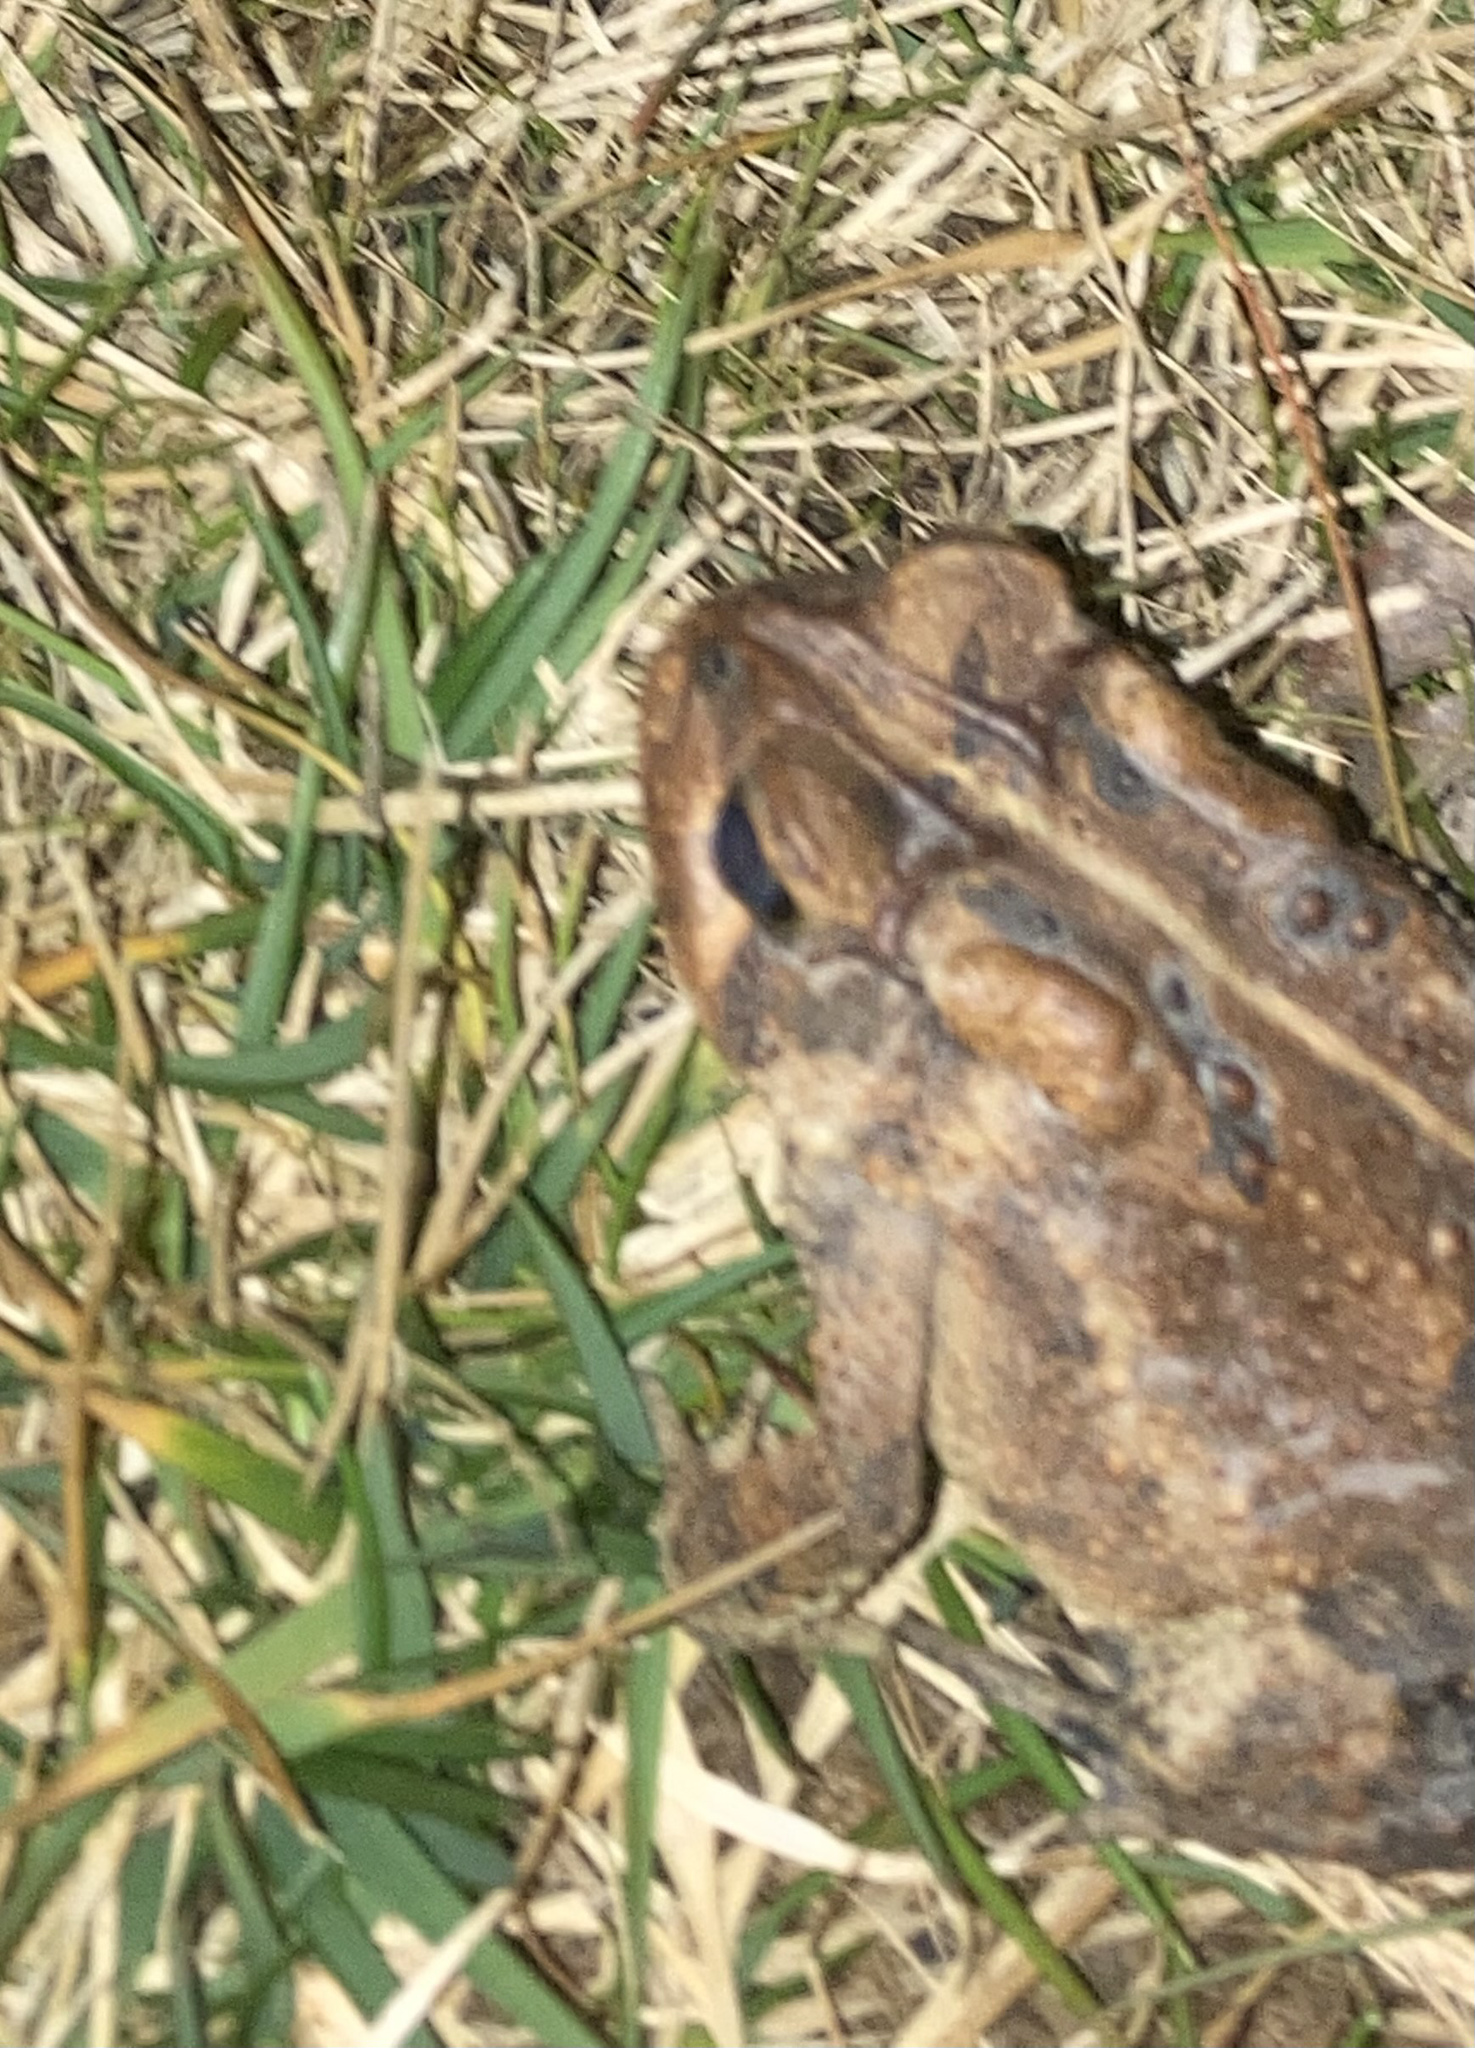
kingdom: Animalia
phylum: Chordata
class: Amphibia
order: Anura
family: Bufonidae
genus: Anaxyrus
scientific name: Anaxyrus americanus
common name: American toad
